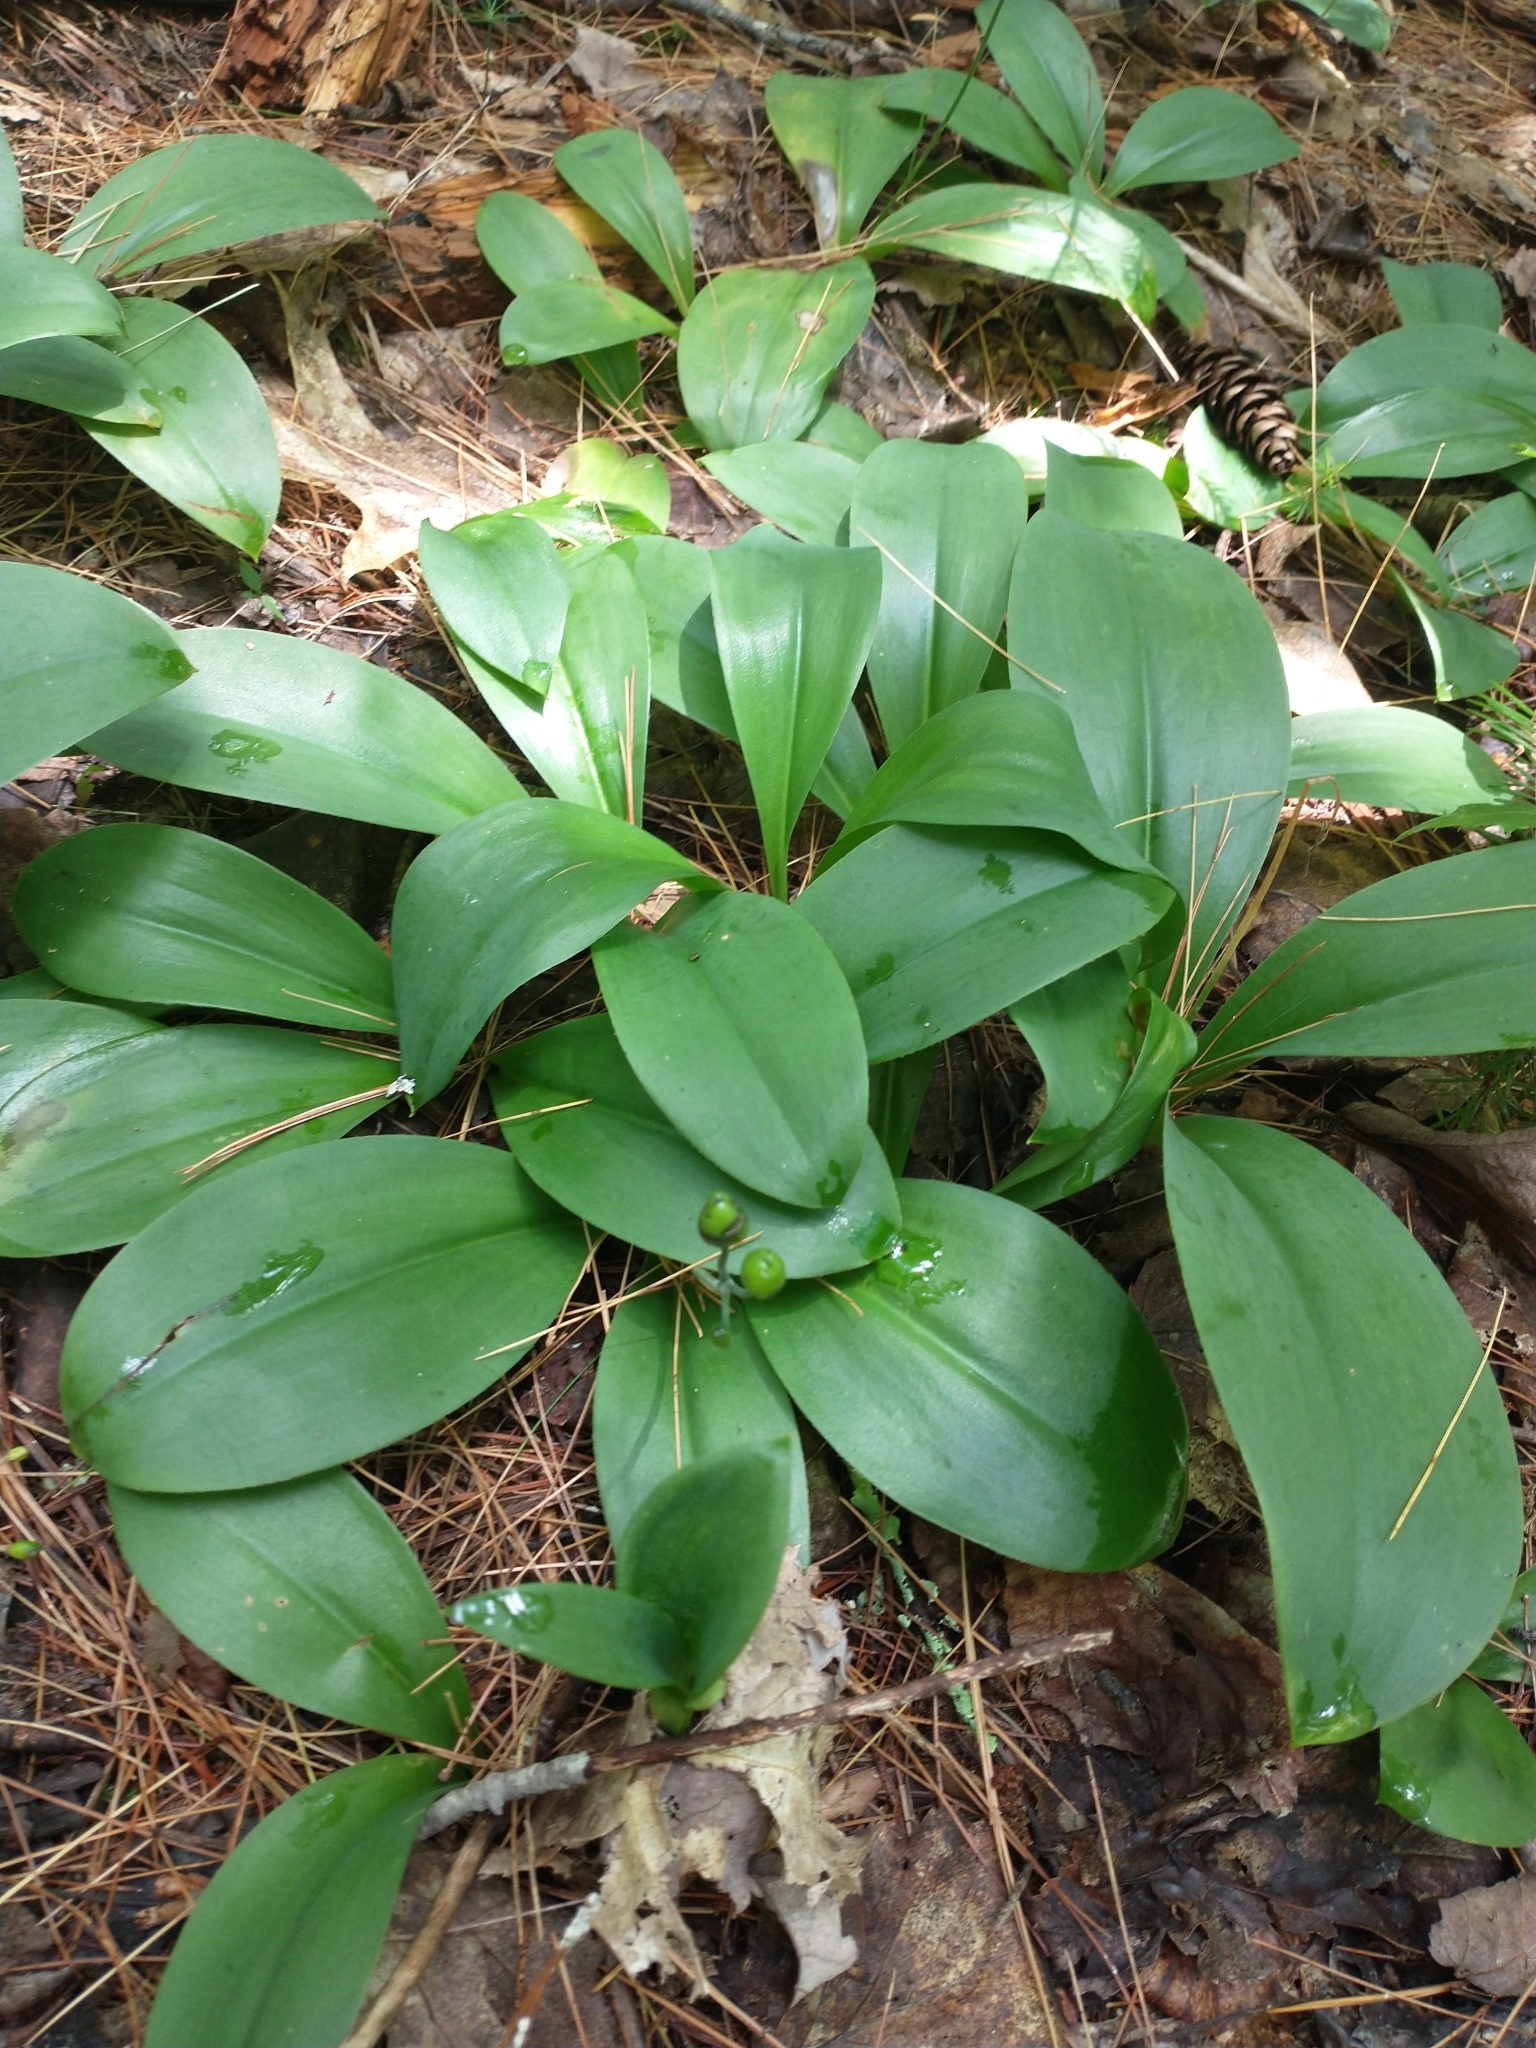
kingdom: Plantae
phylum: Tracheophyta
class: Liliopsida
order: Liliales
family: Liliaceae
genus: Clintonia
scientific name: Clintonia borealis
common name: Yellow clintonia
